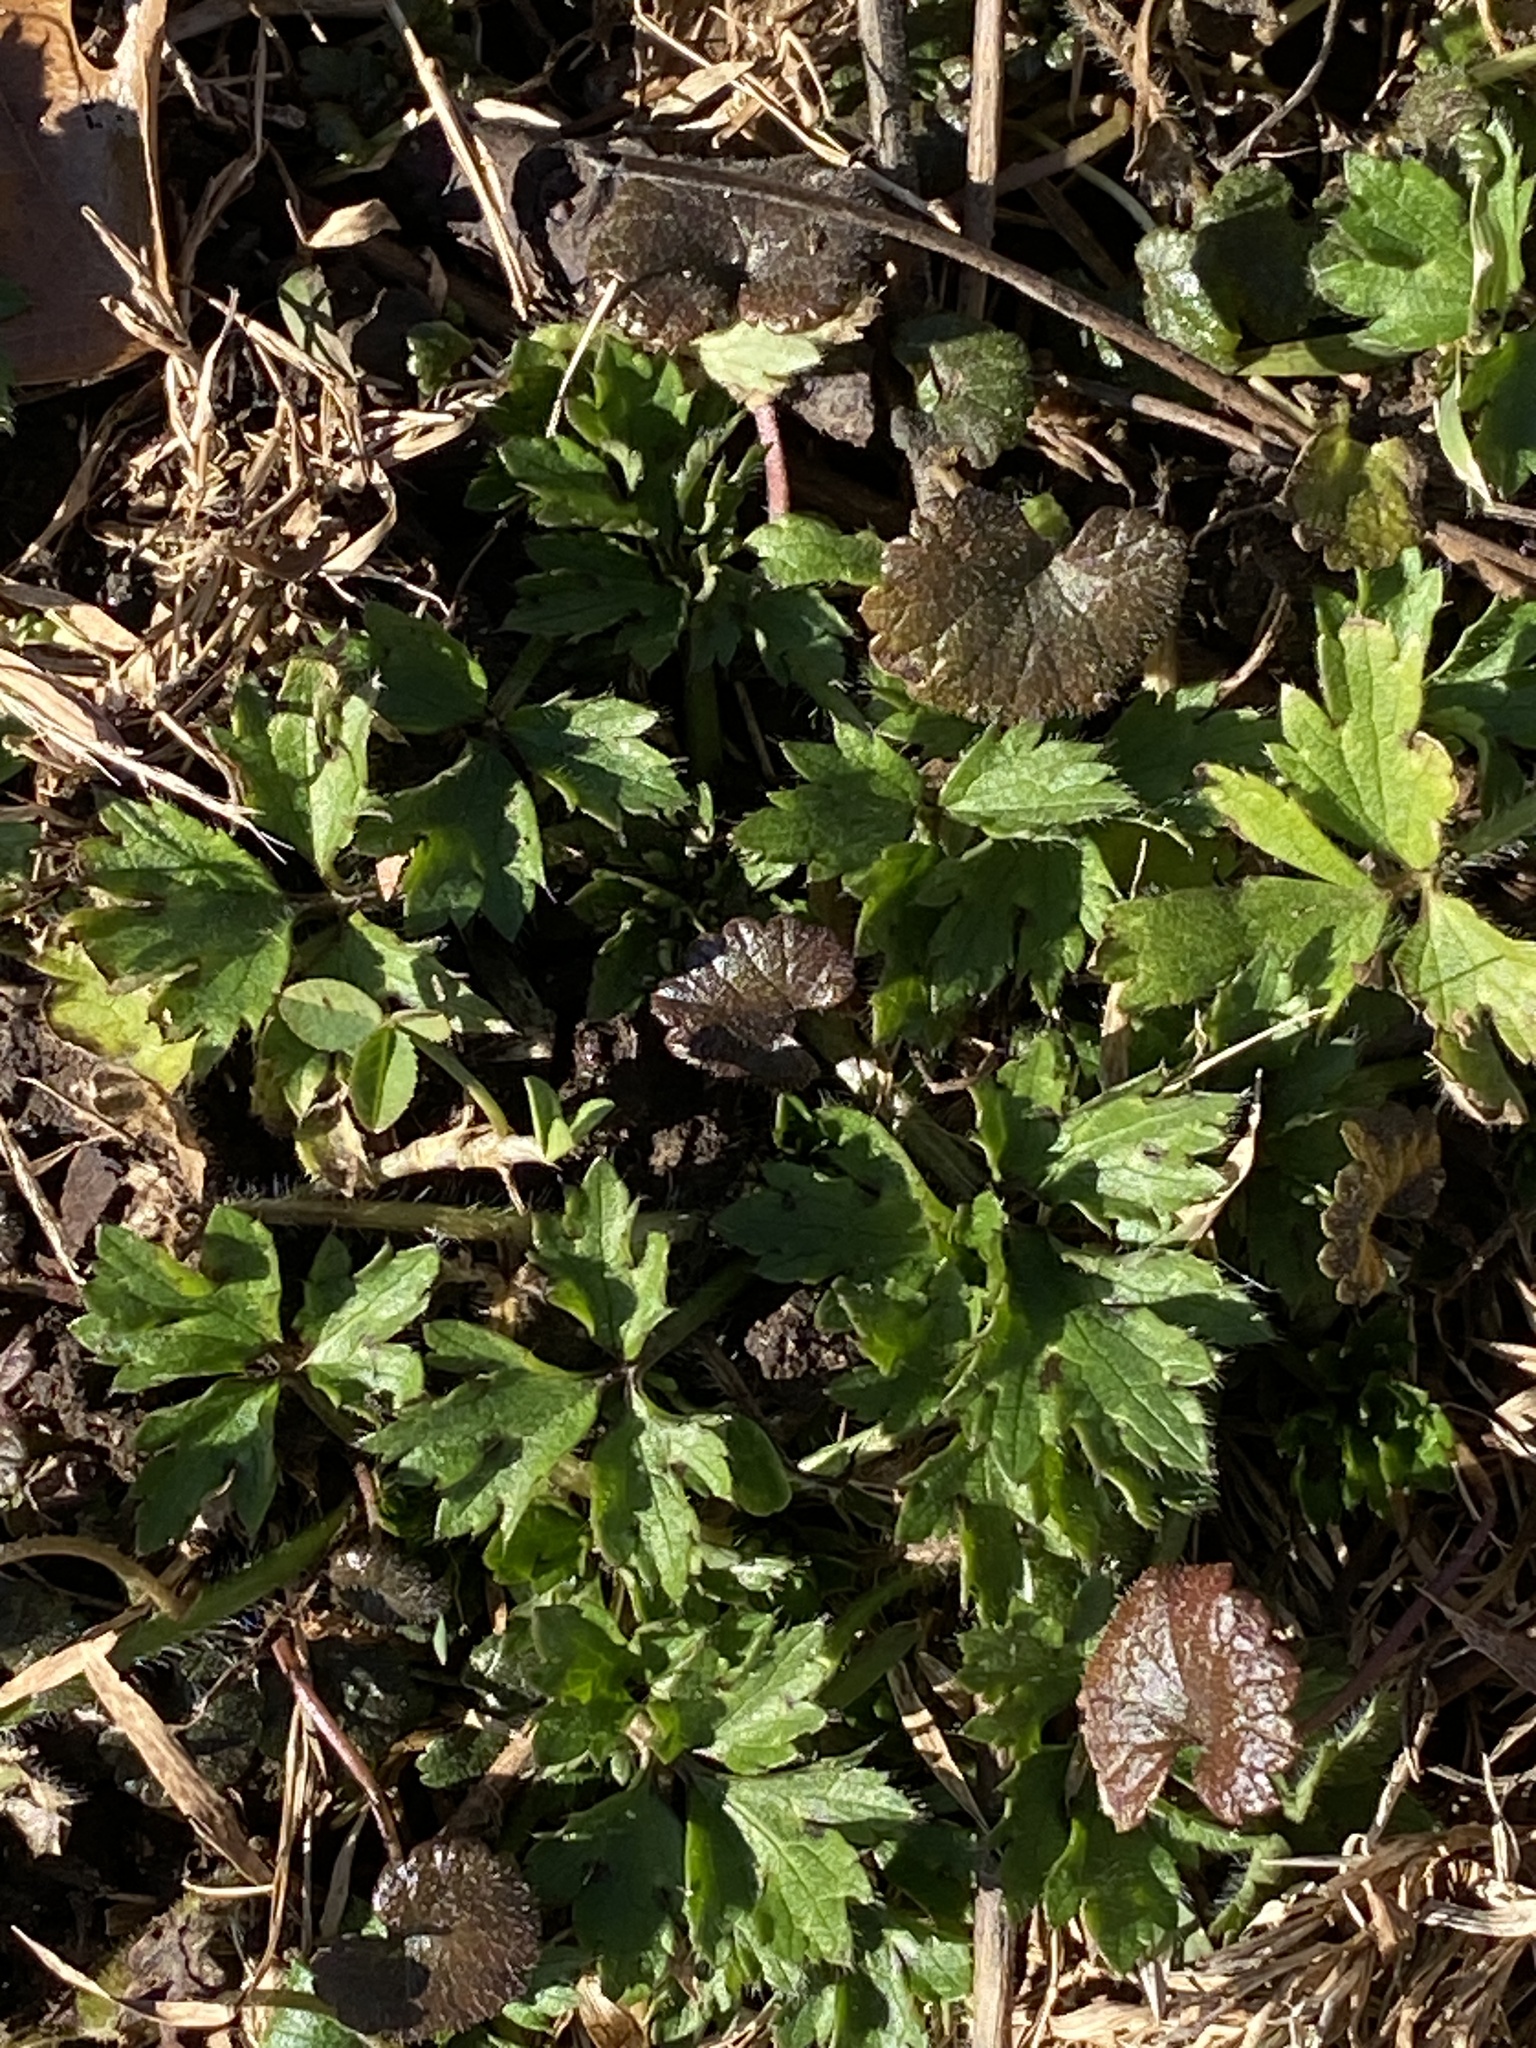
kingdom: Plantae
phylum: Tracheophyta
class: Magnoliopsida
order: Ranunculales
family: Ranunculaceae
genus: Ranunculus
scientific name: Ranunculus repens
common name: Creeping buttercup
